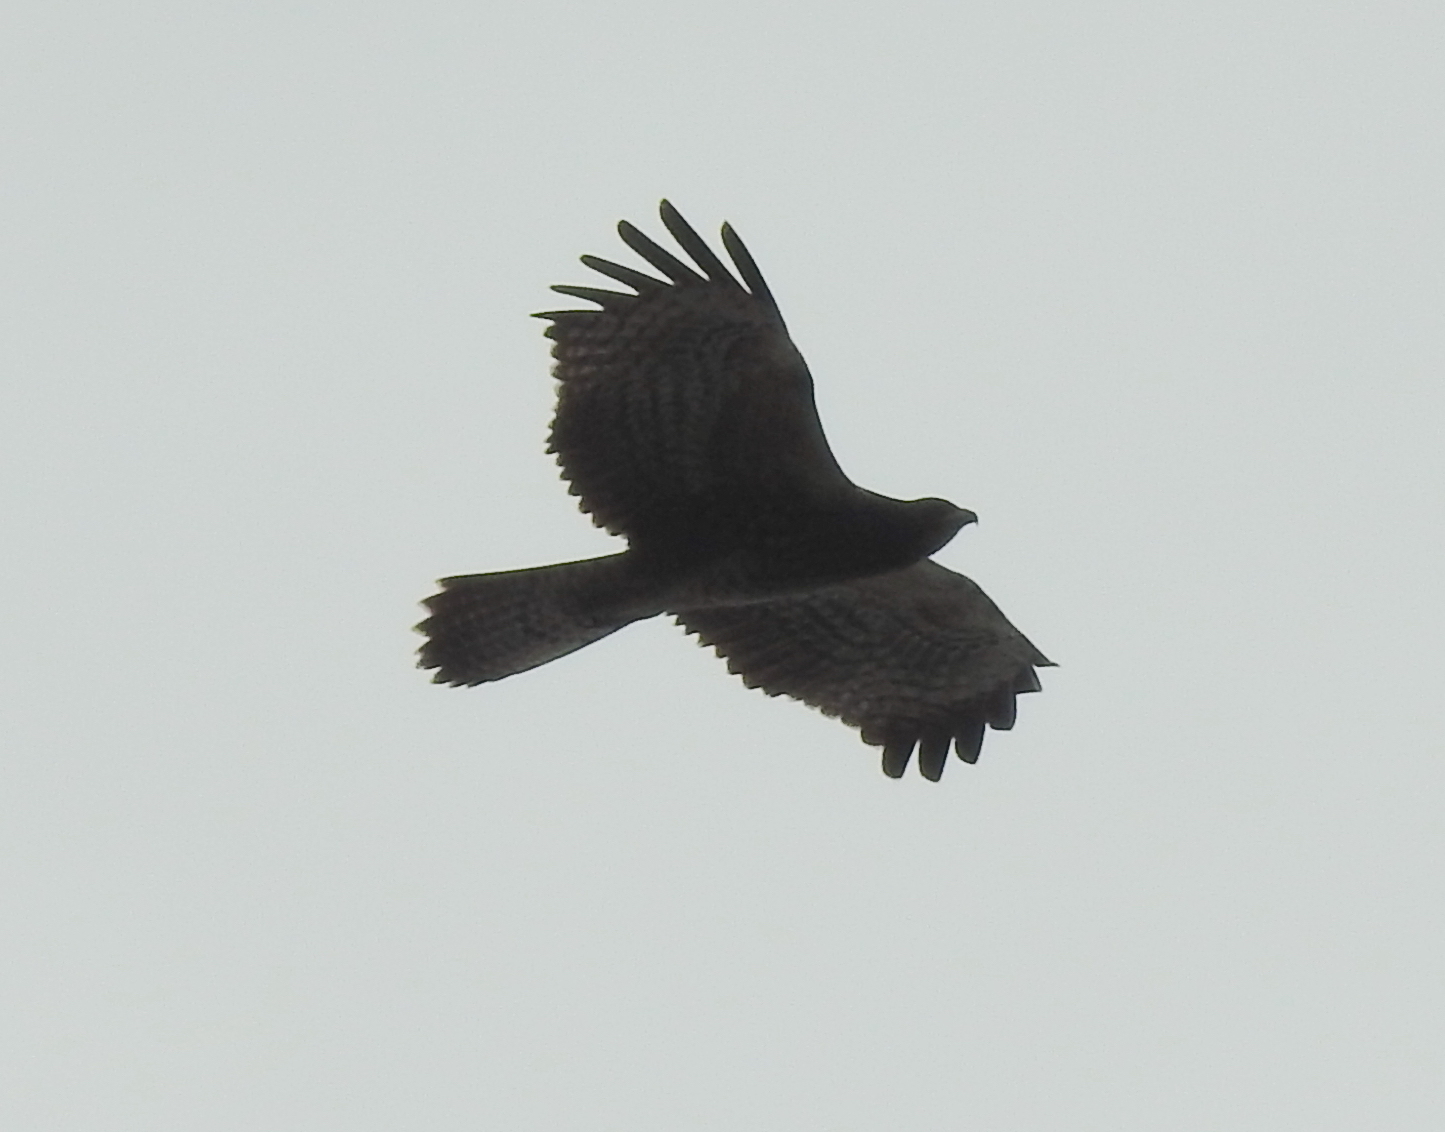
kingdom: Animalia
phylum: Chordata
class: Aves
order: Accipitriformes
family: Accipitridae
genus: Pernis
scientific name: Pernis ptilorhynchus
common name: Crested honey buzzard
